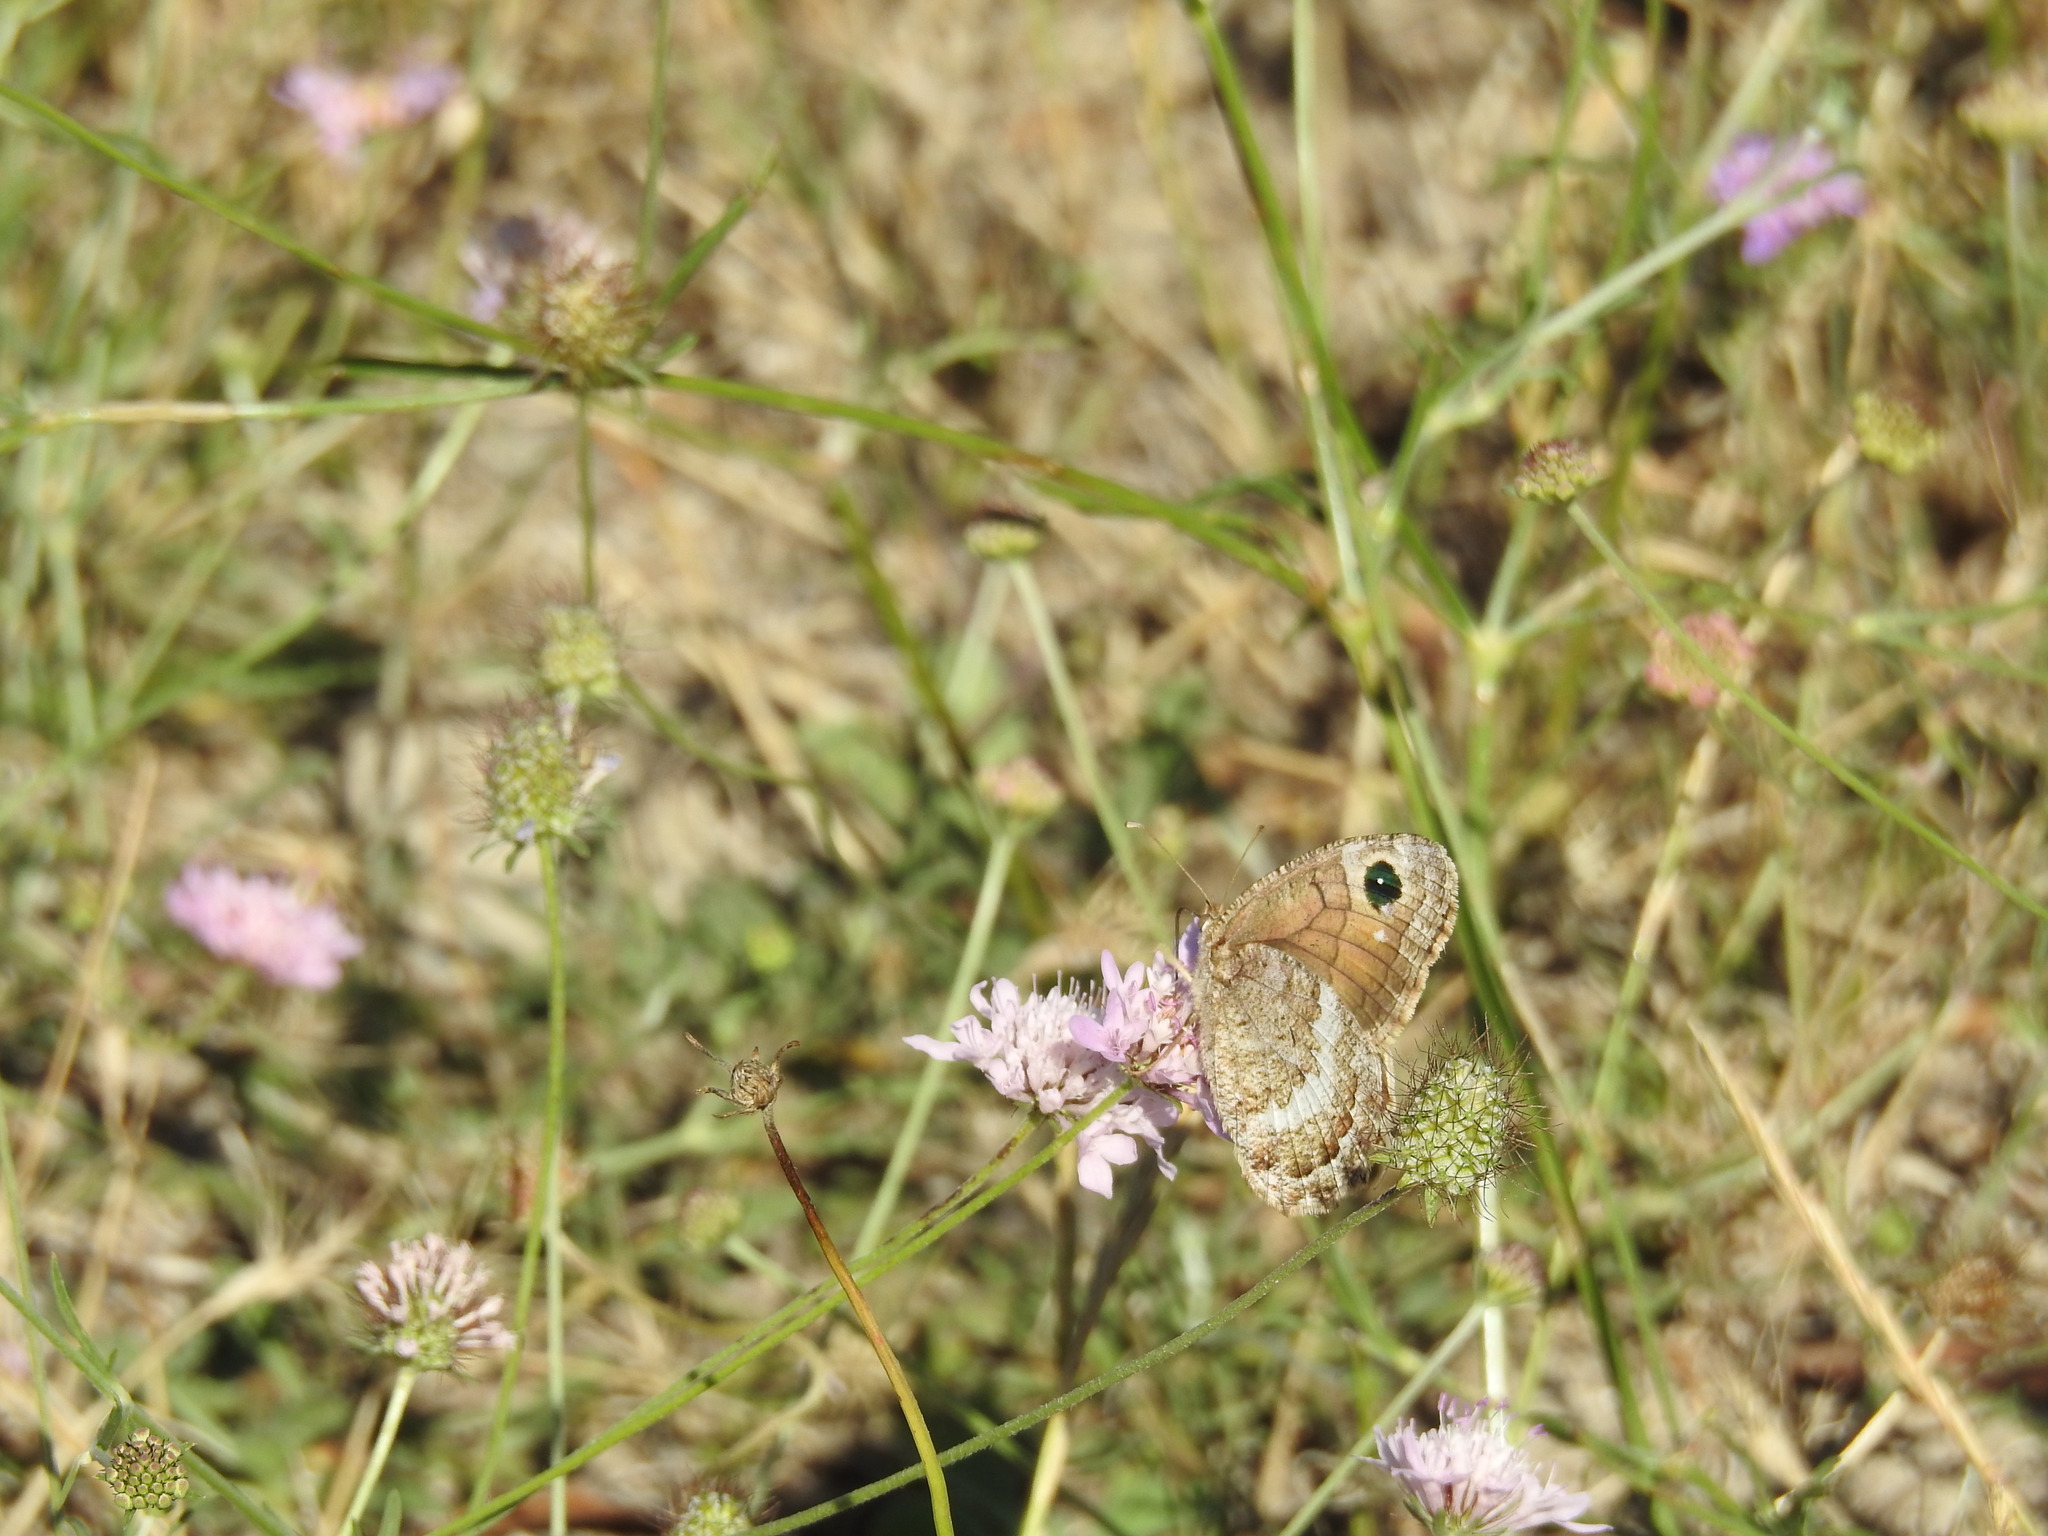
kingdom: Animalia
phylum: Arthropoda
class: Insecta
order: Lepidoptera
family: Nymphalidae
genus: Satyrus
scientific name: Satyrus actaea
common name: Black satyr
